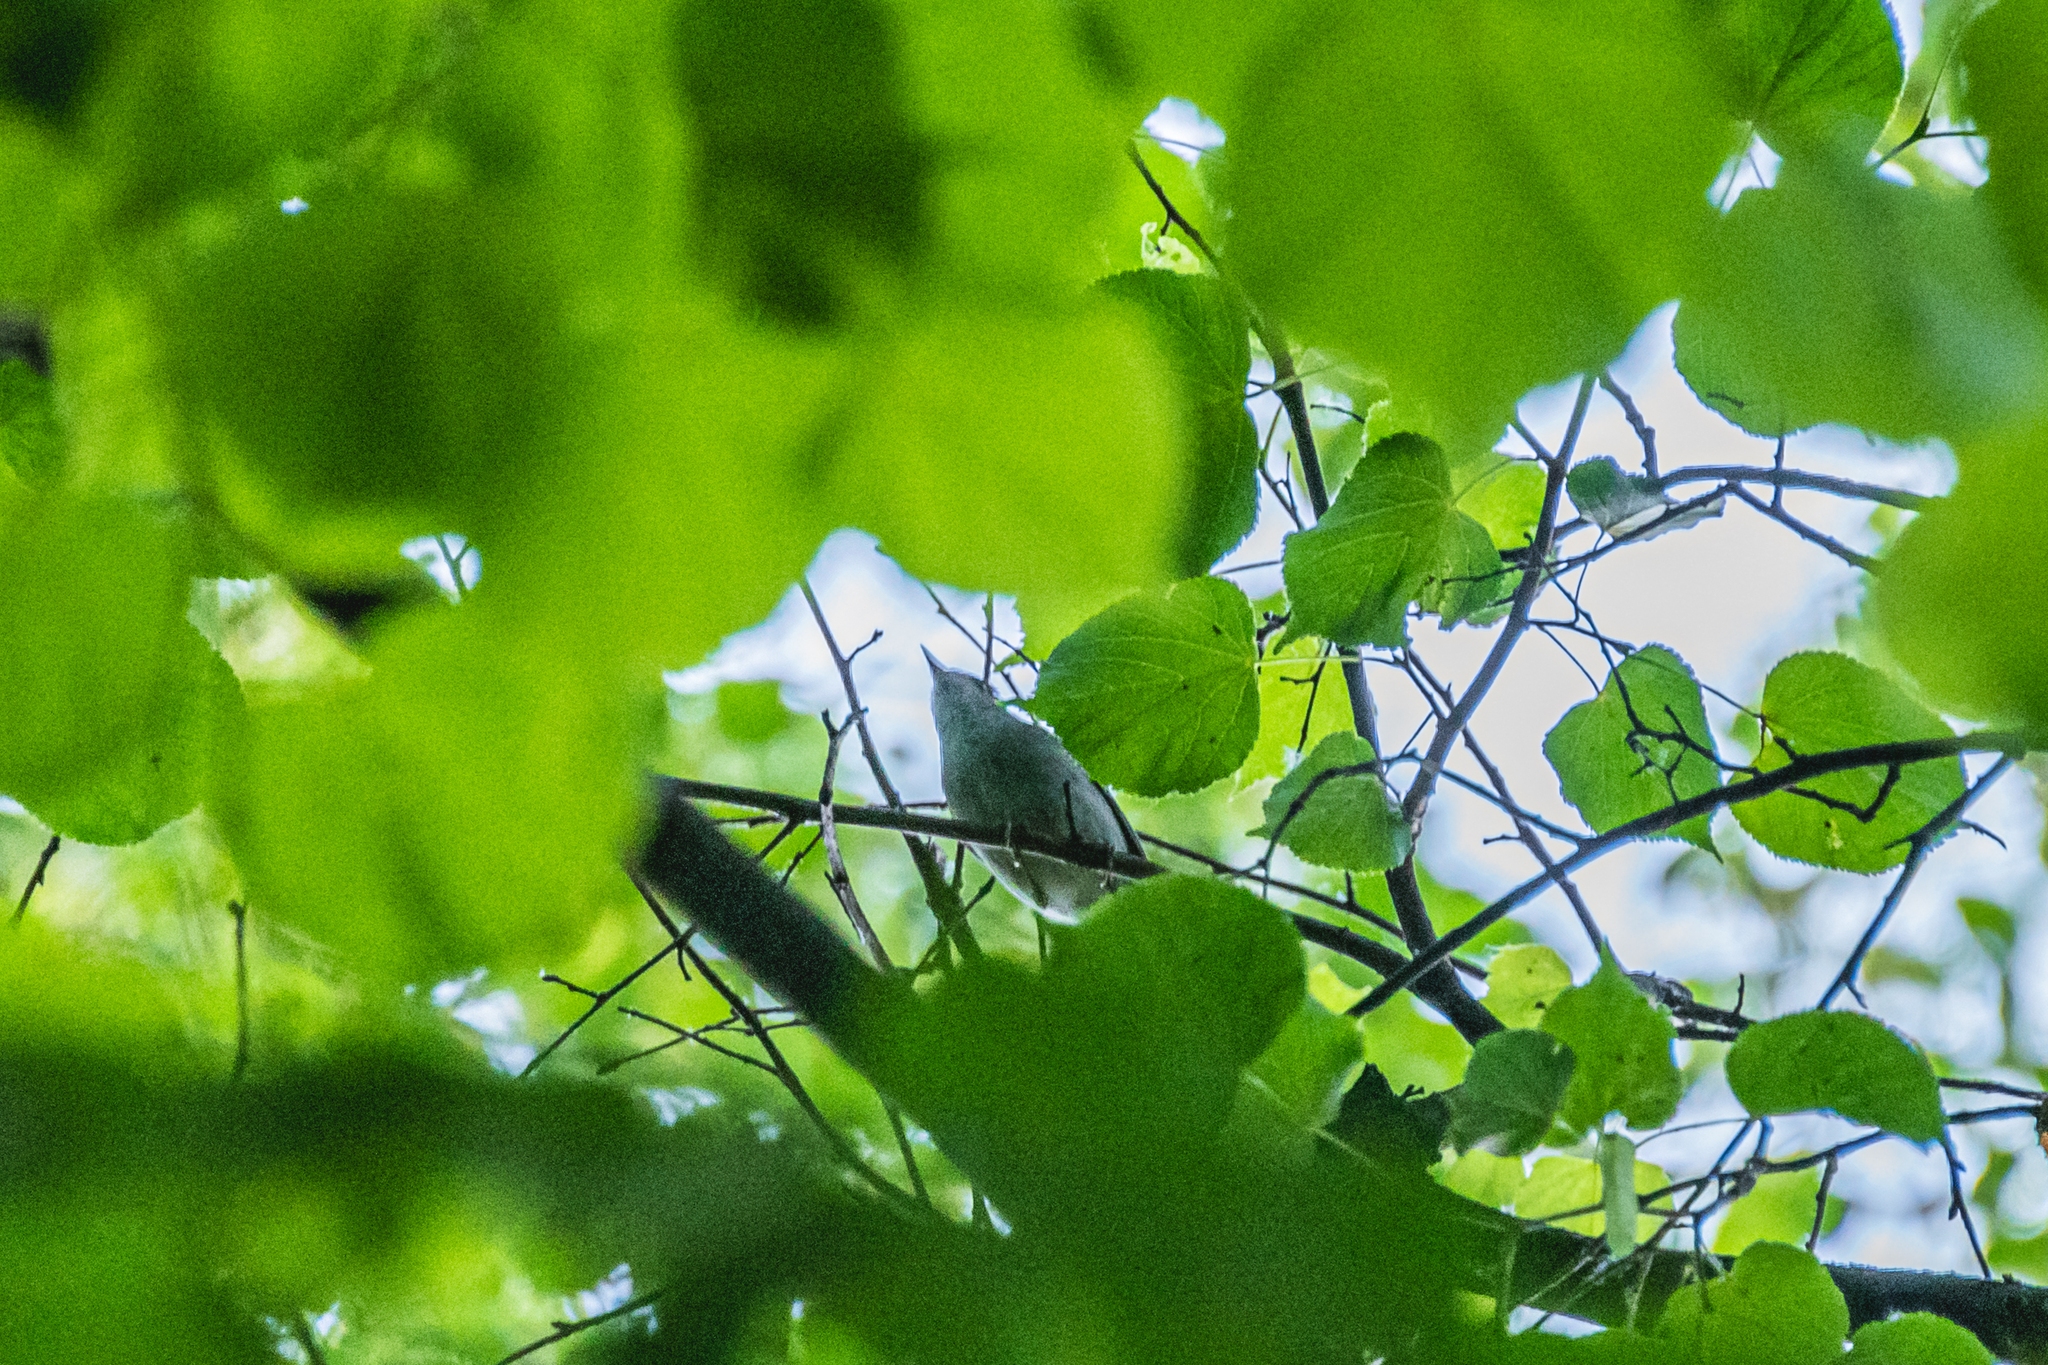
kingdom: Animalia
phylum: Chordata
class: Aves
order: Passeriformes
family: Sylviidae
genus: Sylvia
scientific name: Sylvia atricapilla
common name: Eurasian blackcap
